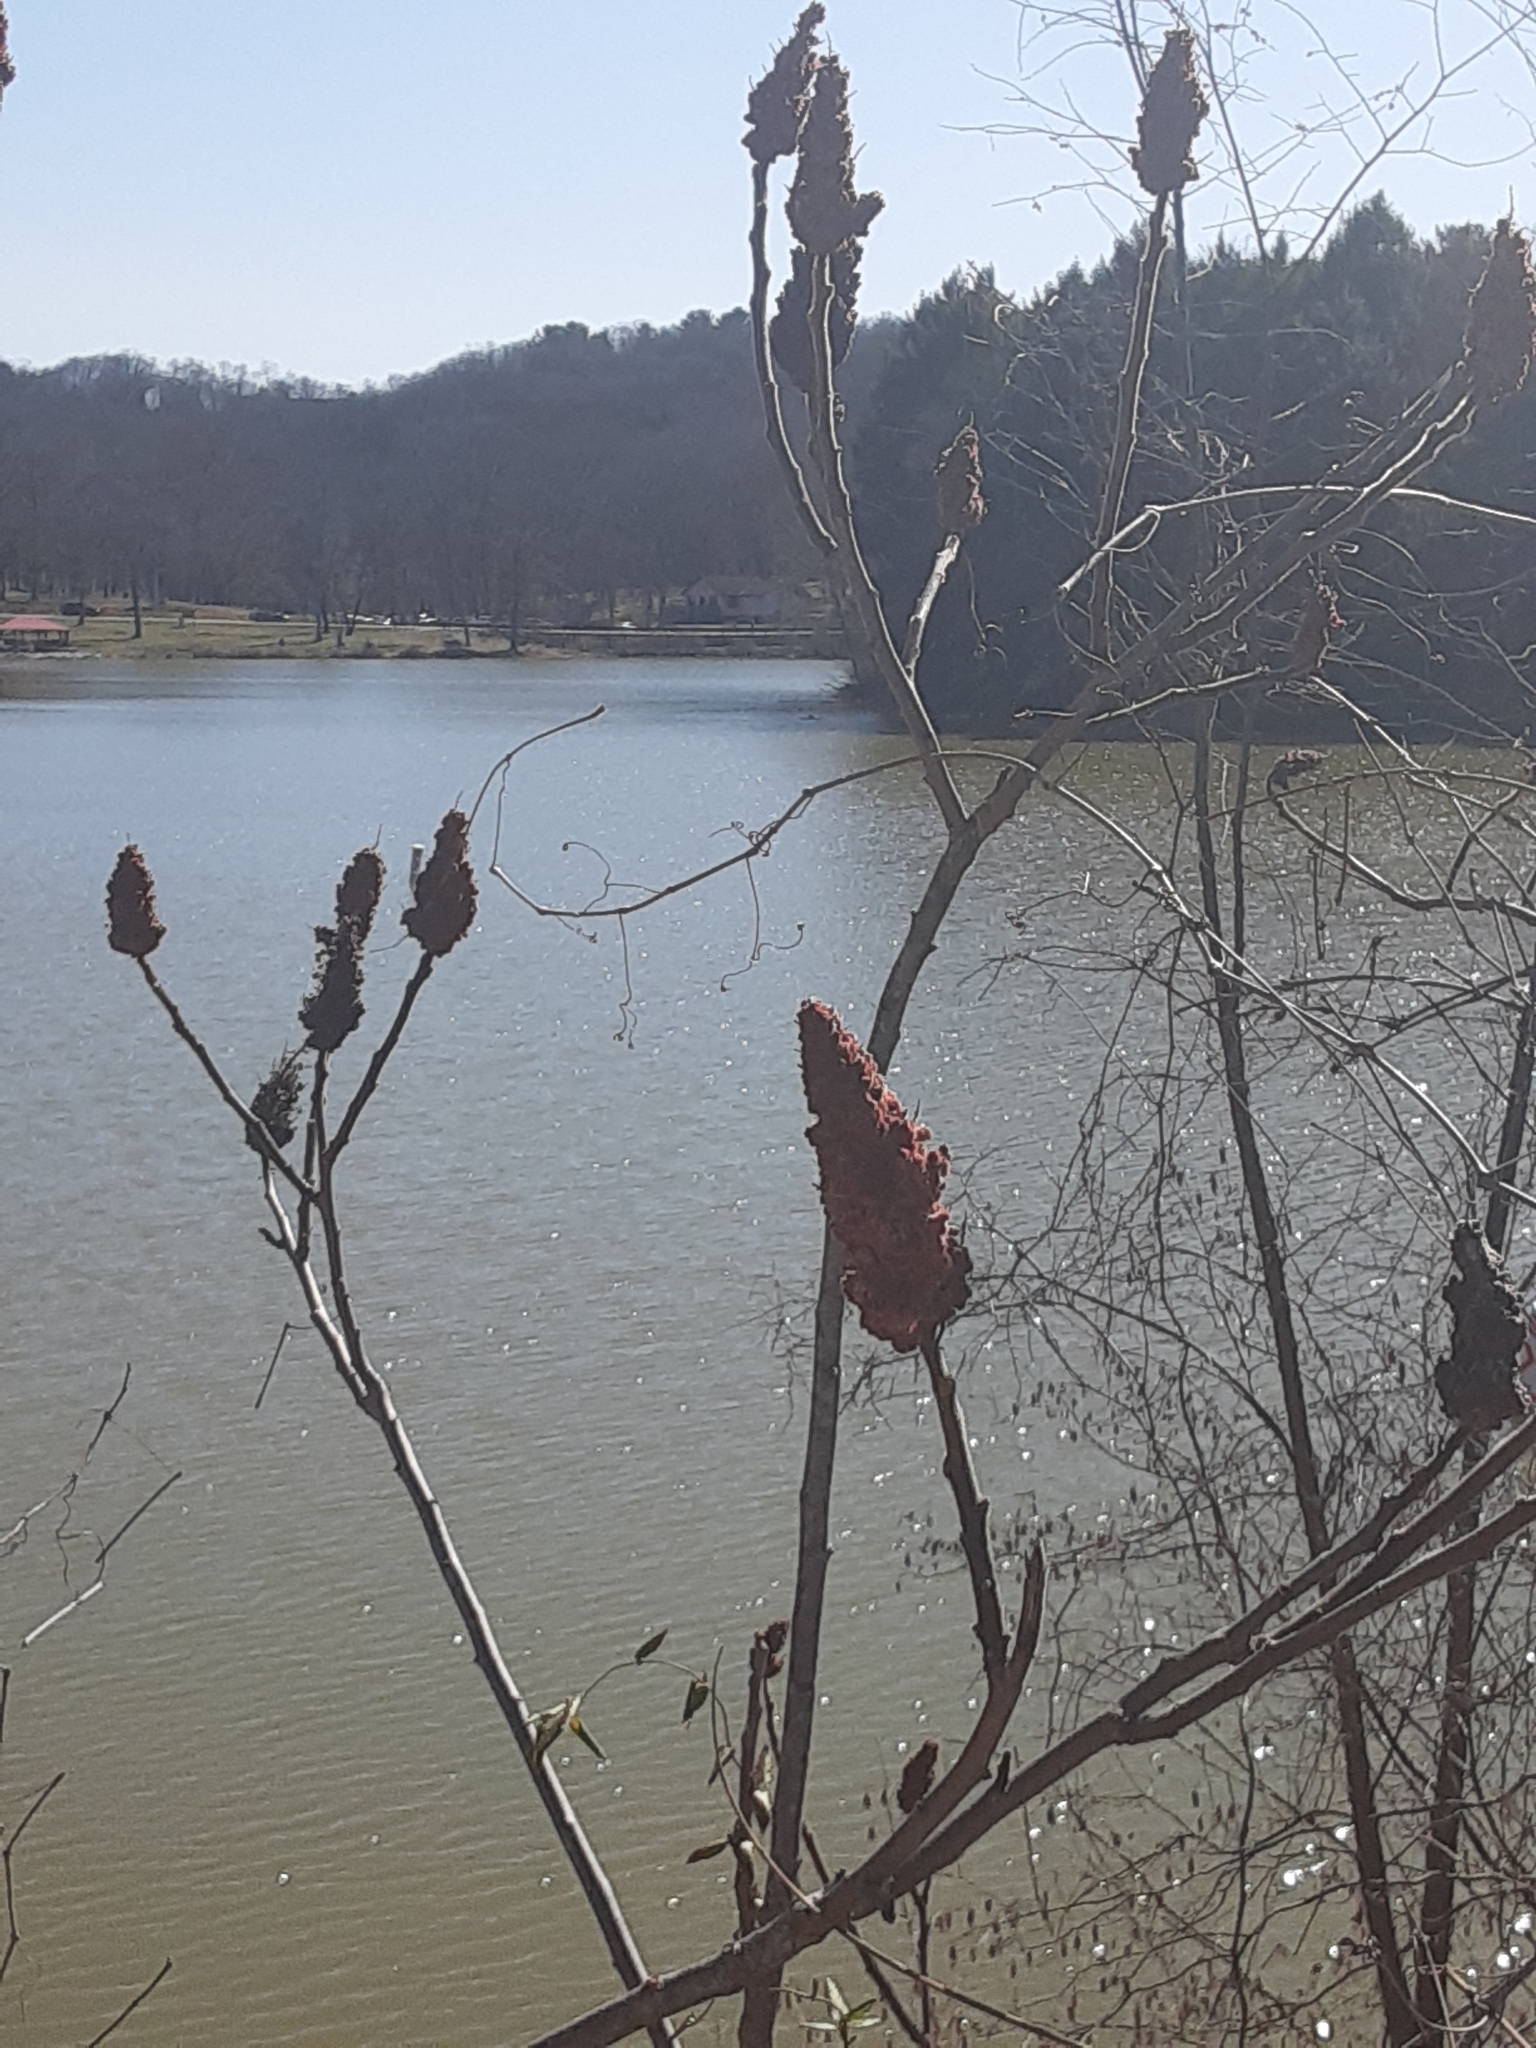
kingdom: Plantae
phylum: Tracheophyta
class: Magnoliopsida
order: Sapindales
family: Anacardiaceae
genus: Rhus
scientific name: Rhus typhina
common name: Staghorn sumac
